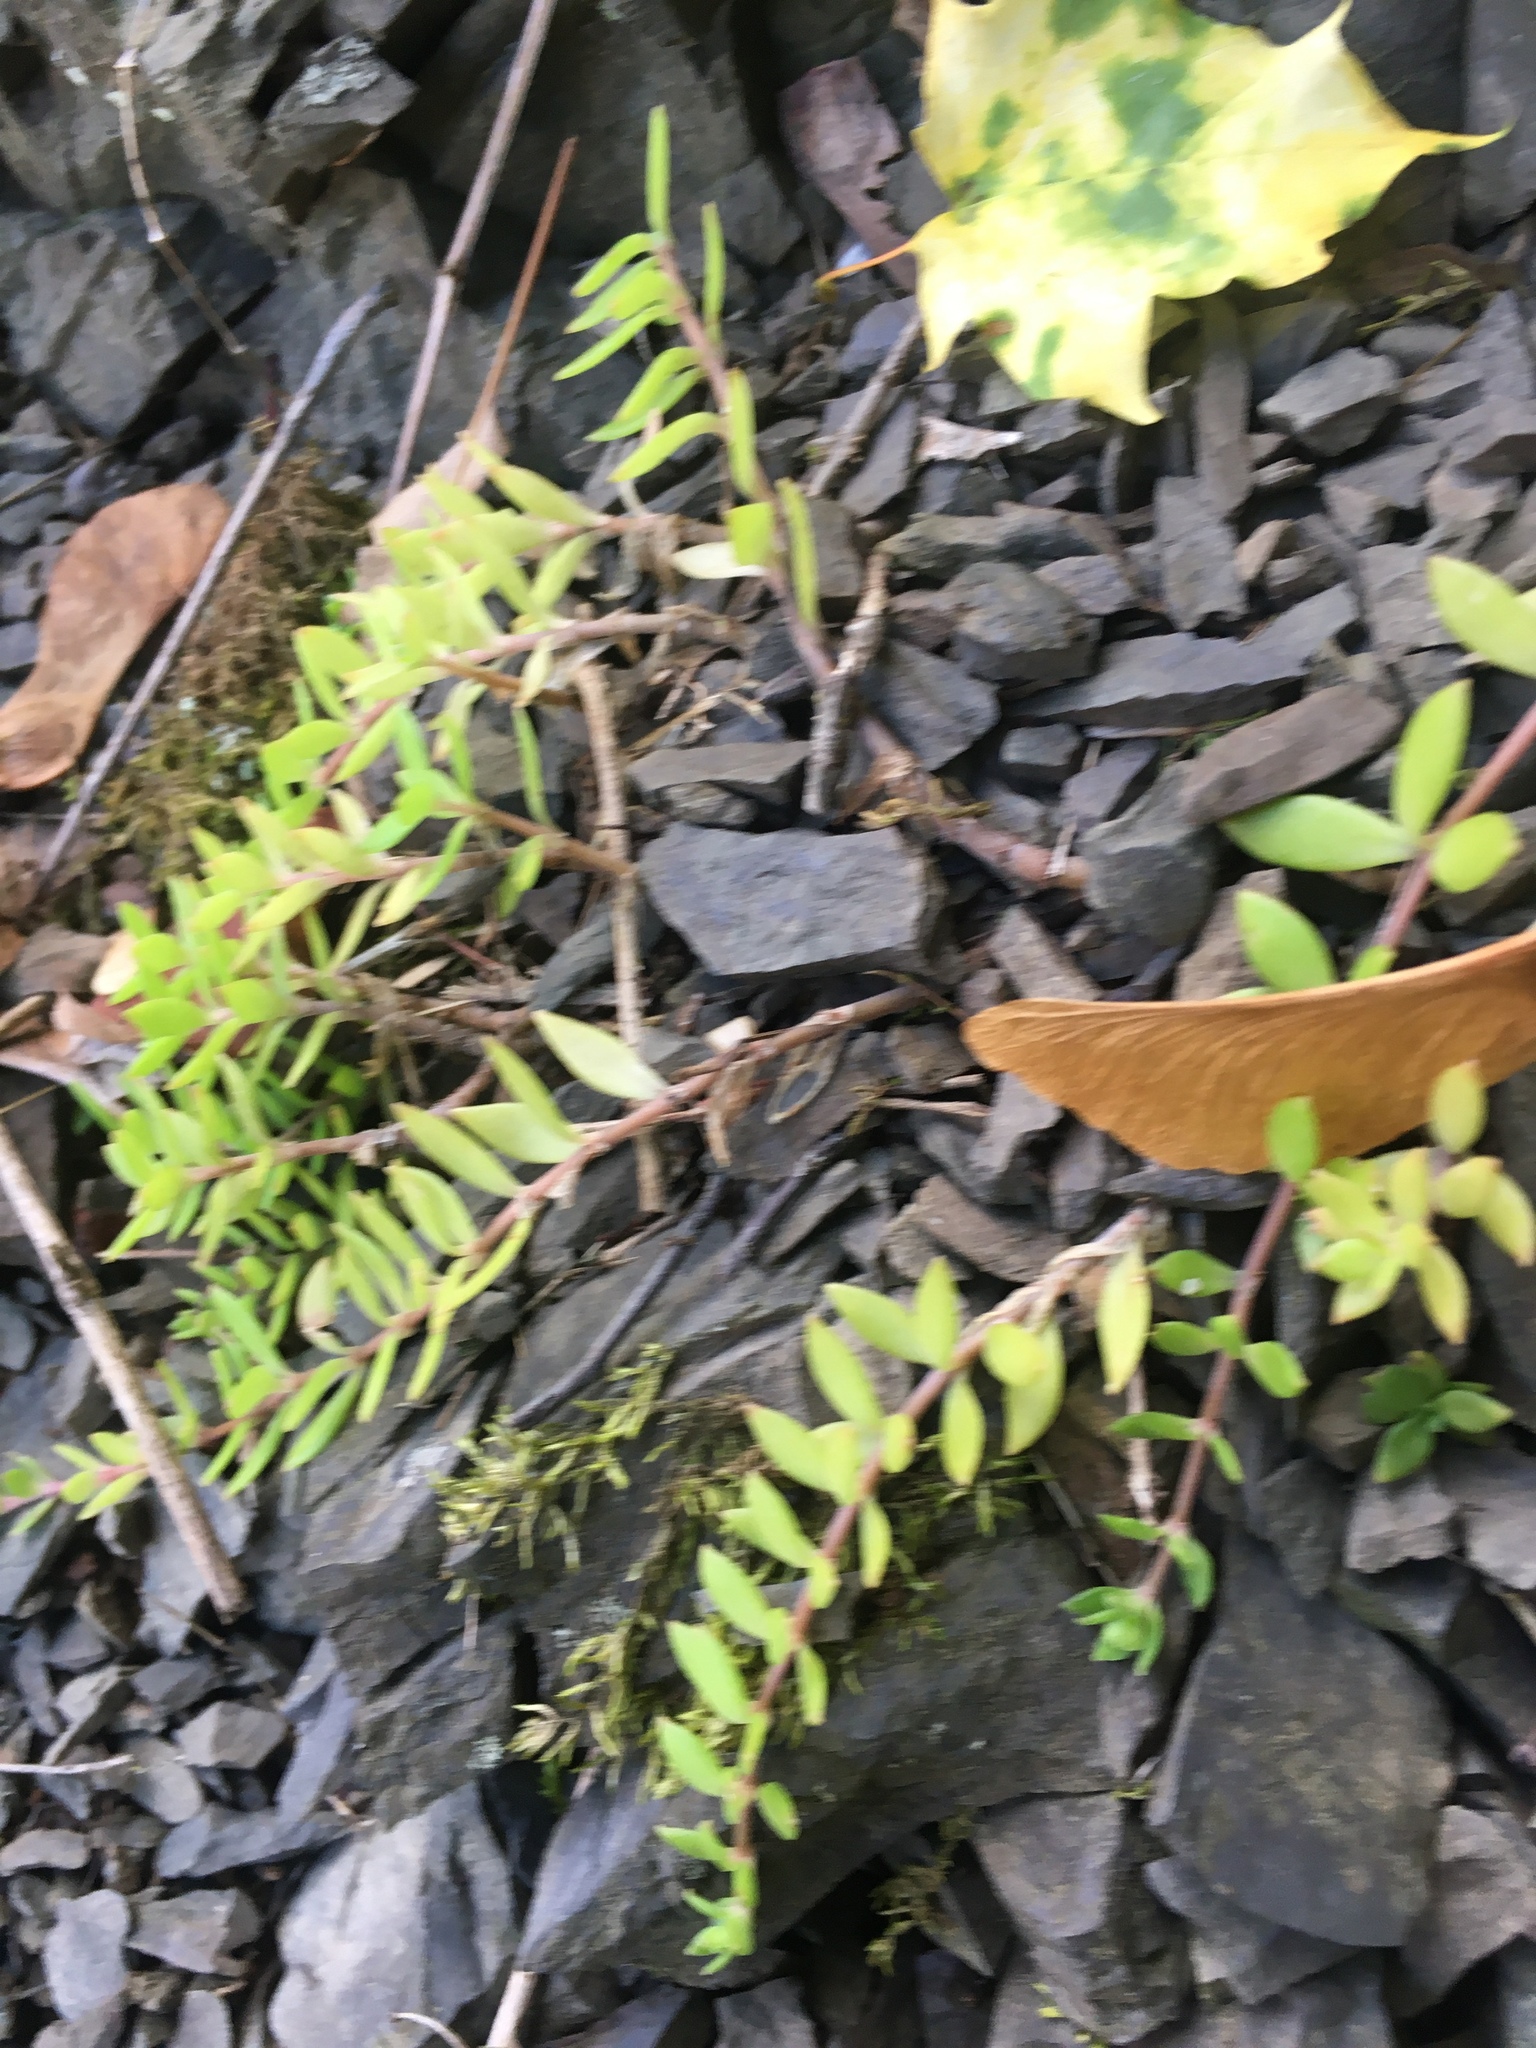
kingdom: Plantae
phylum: Tracheophyta
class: Magnoliopsida
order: Saxifragales
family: Crassulaceae
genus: Sedum
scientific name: Sedum sarmentosum
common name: Stringy stonecrop
